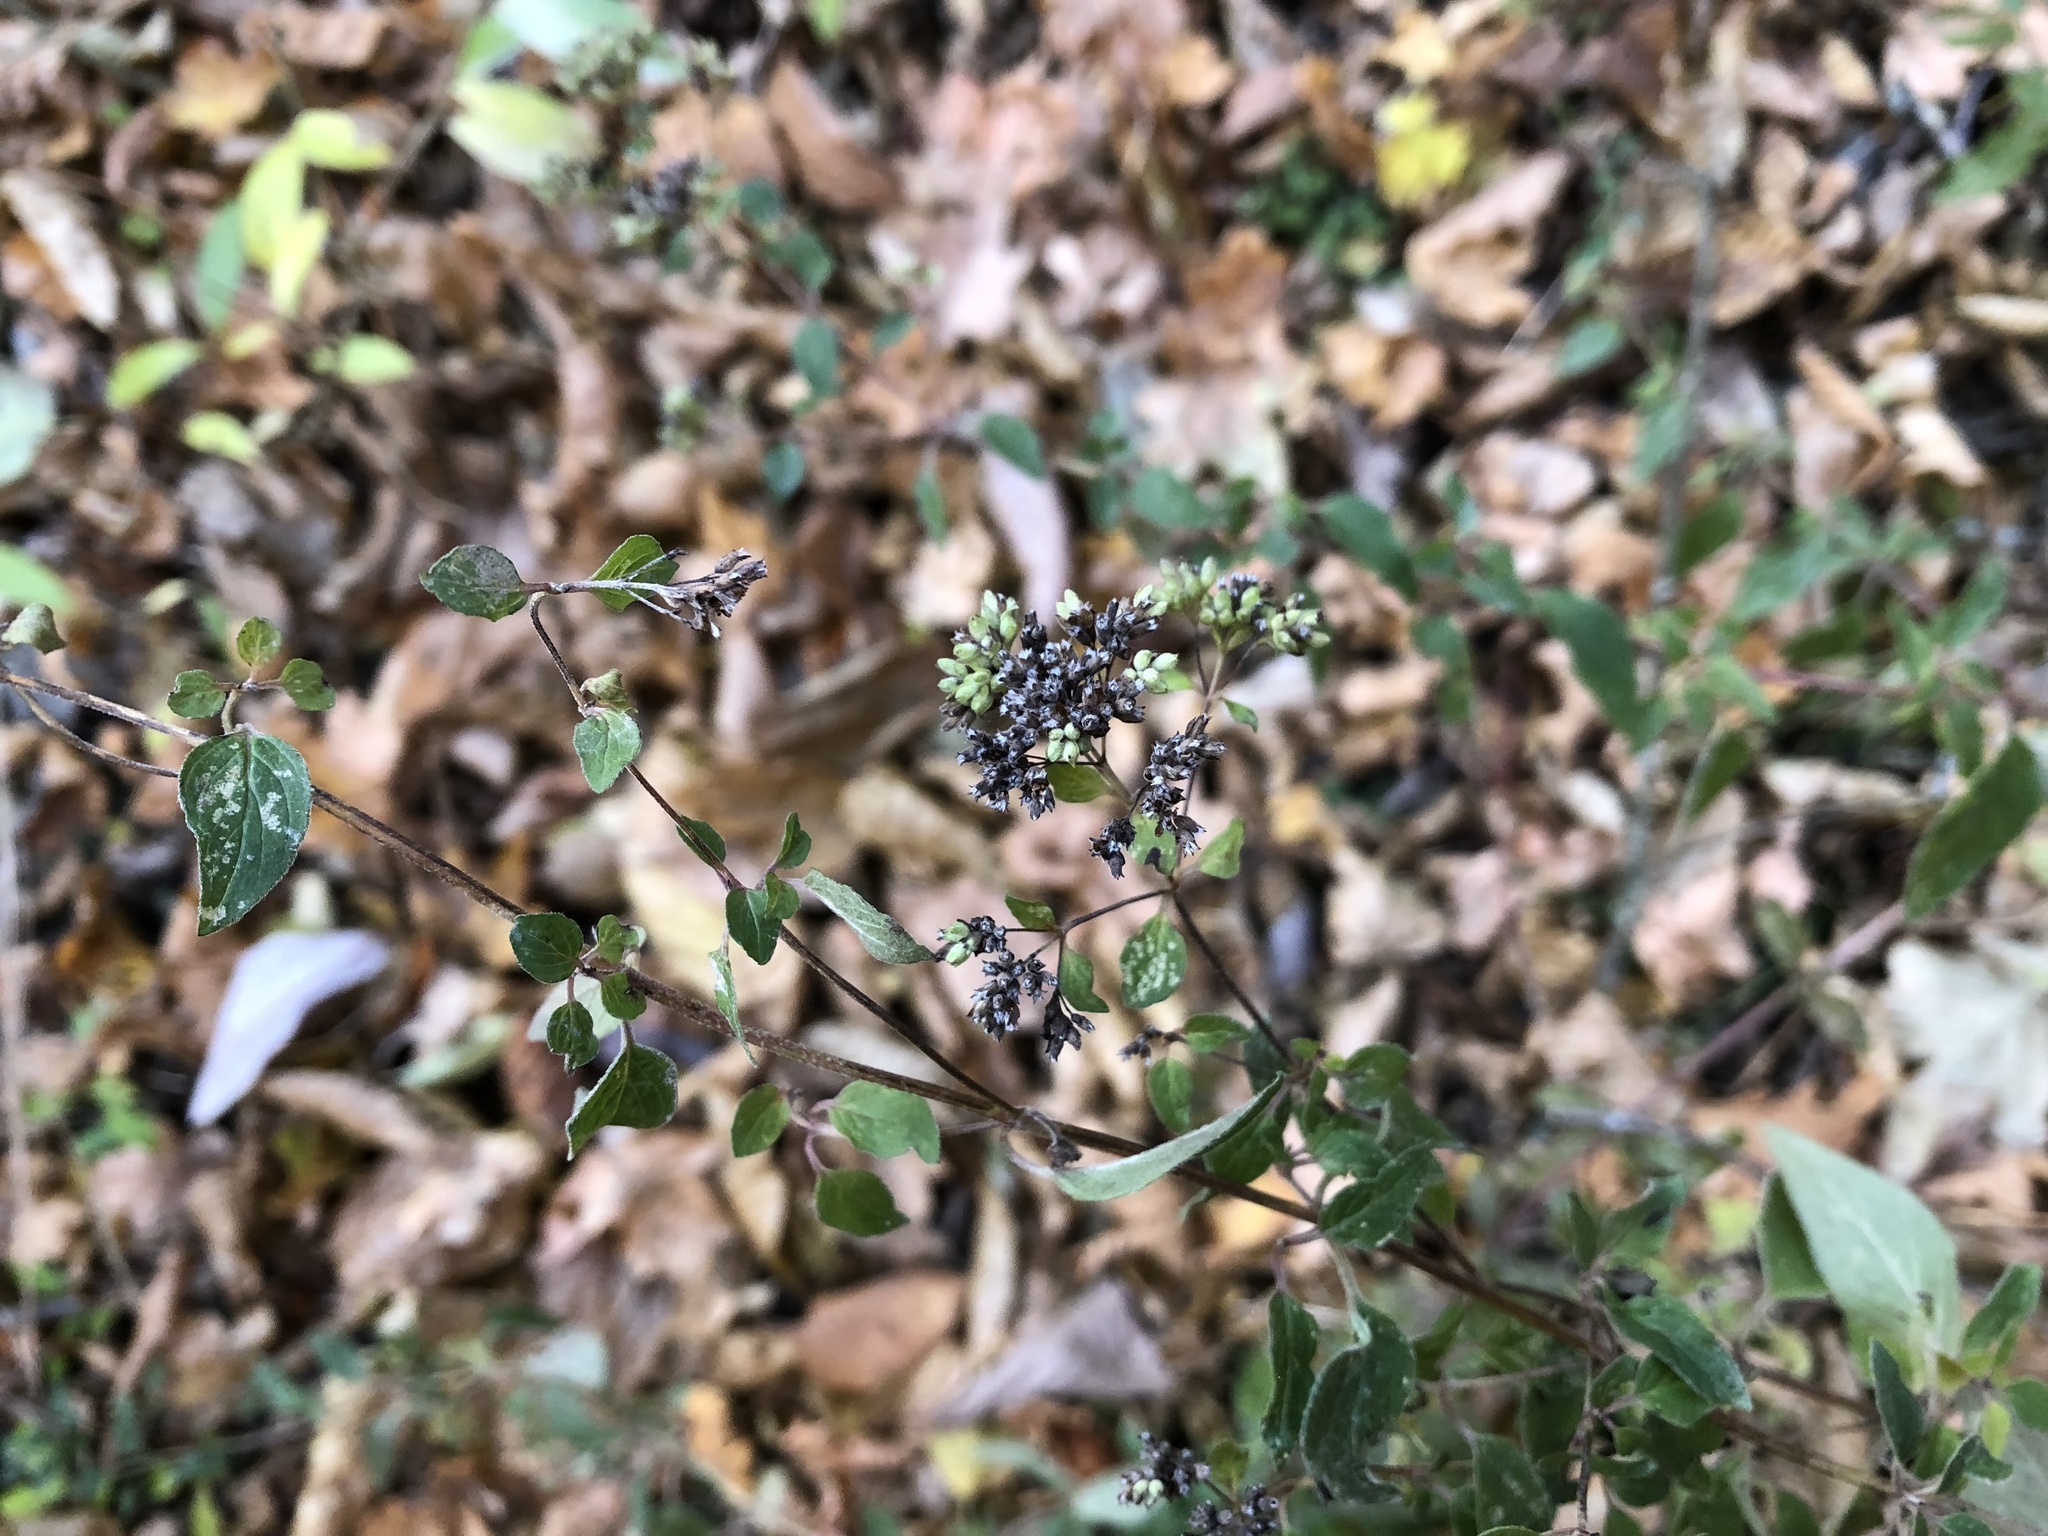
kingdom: Plantae
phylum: Tracheophyta
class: Magnoliopsida
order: Lamiales
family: Lamiaceae
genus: Origanum
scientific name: Origanum vulgare
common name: Wild marjoram
